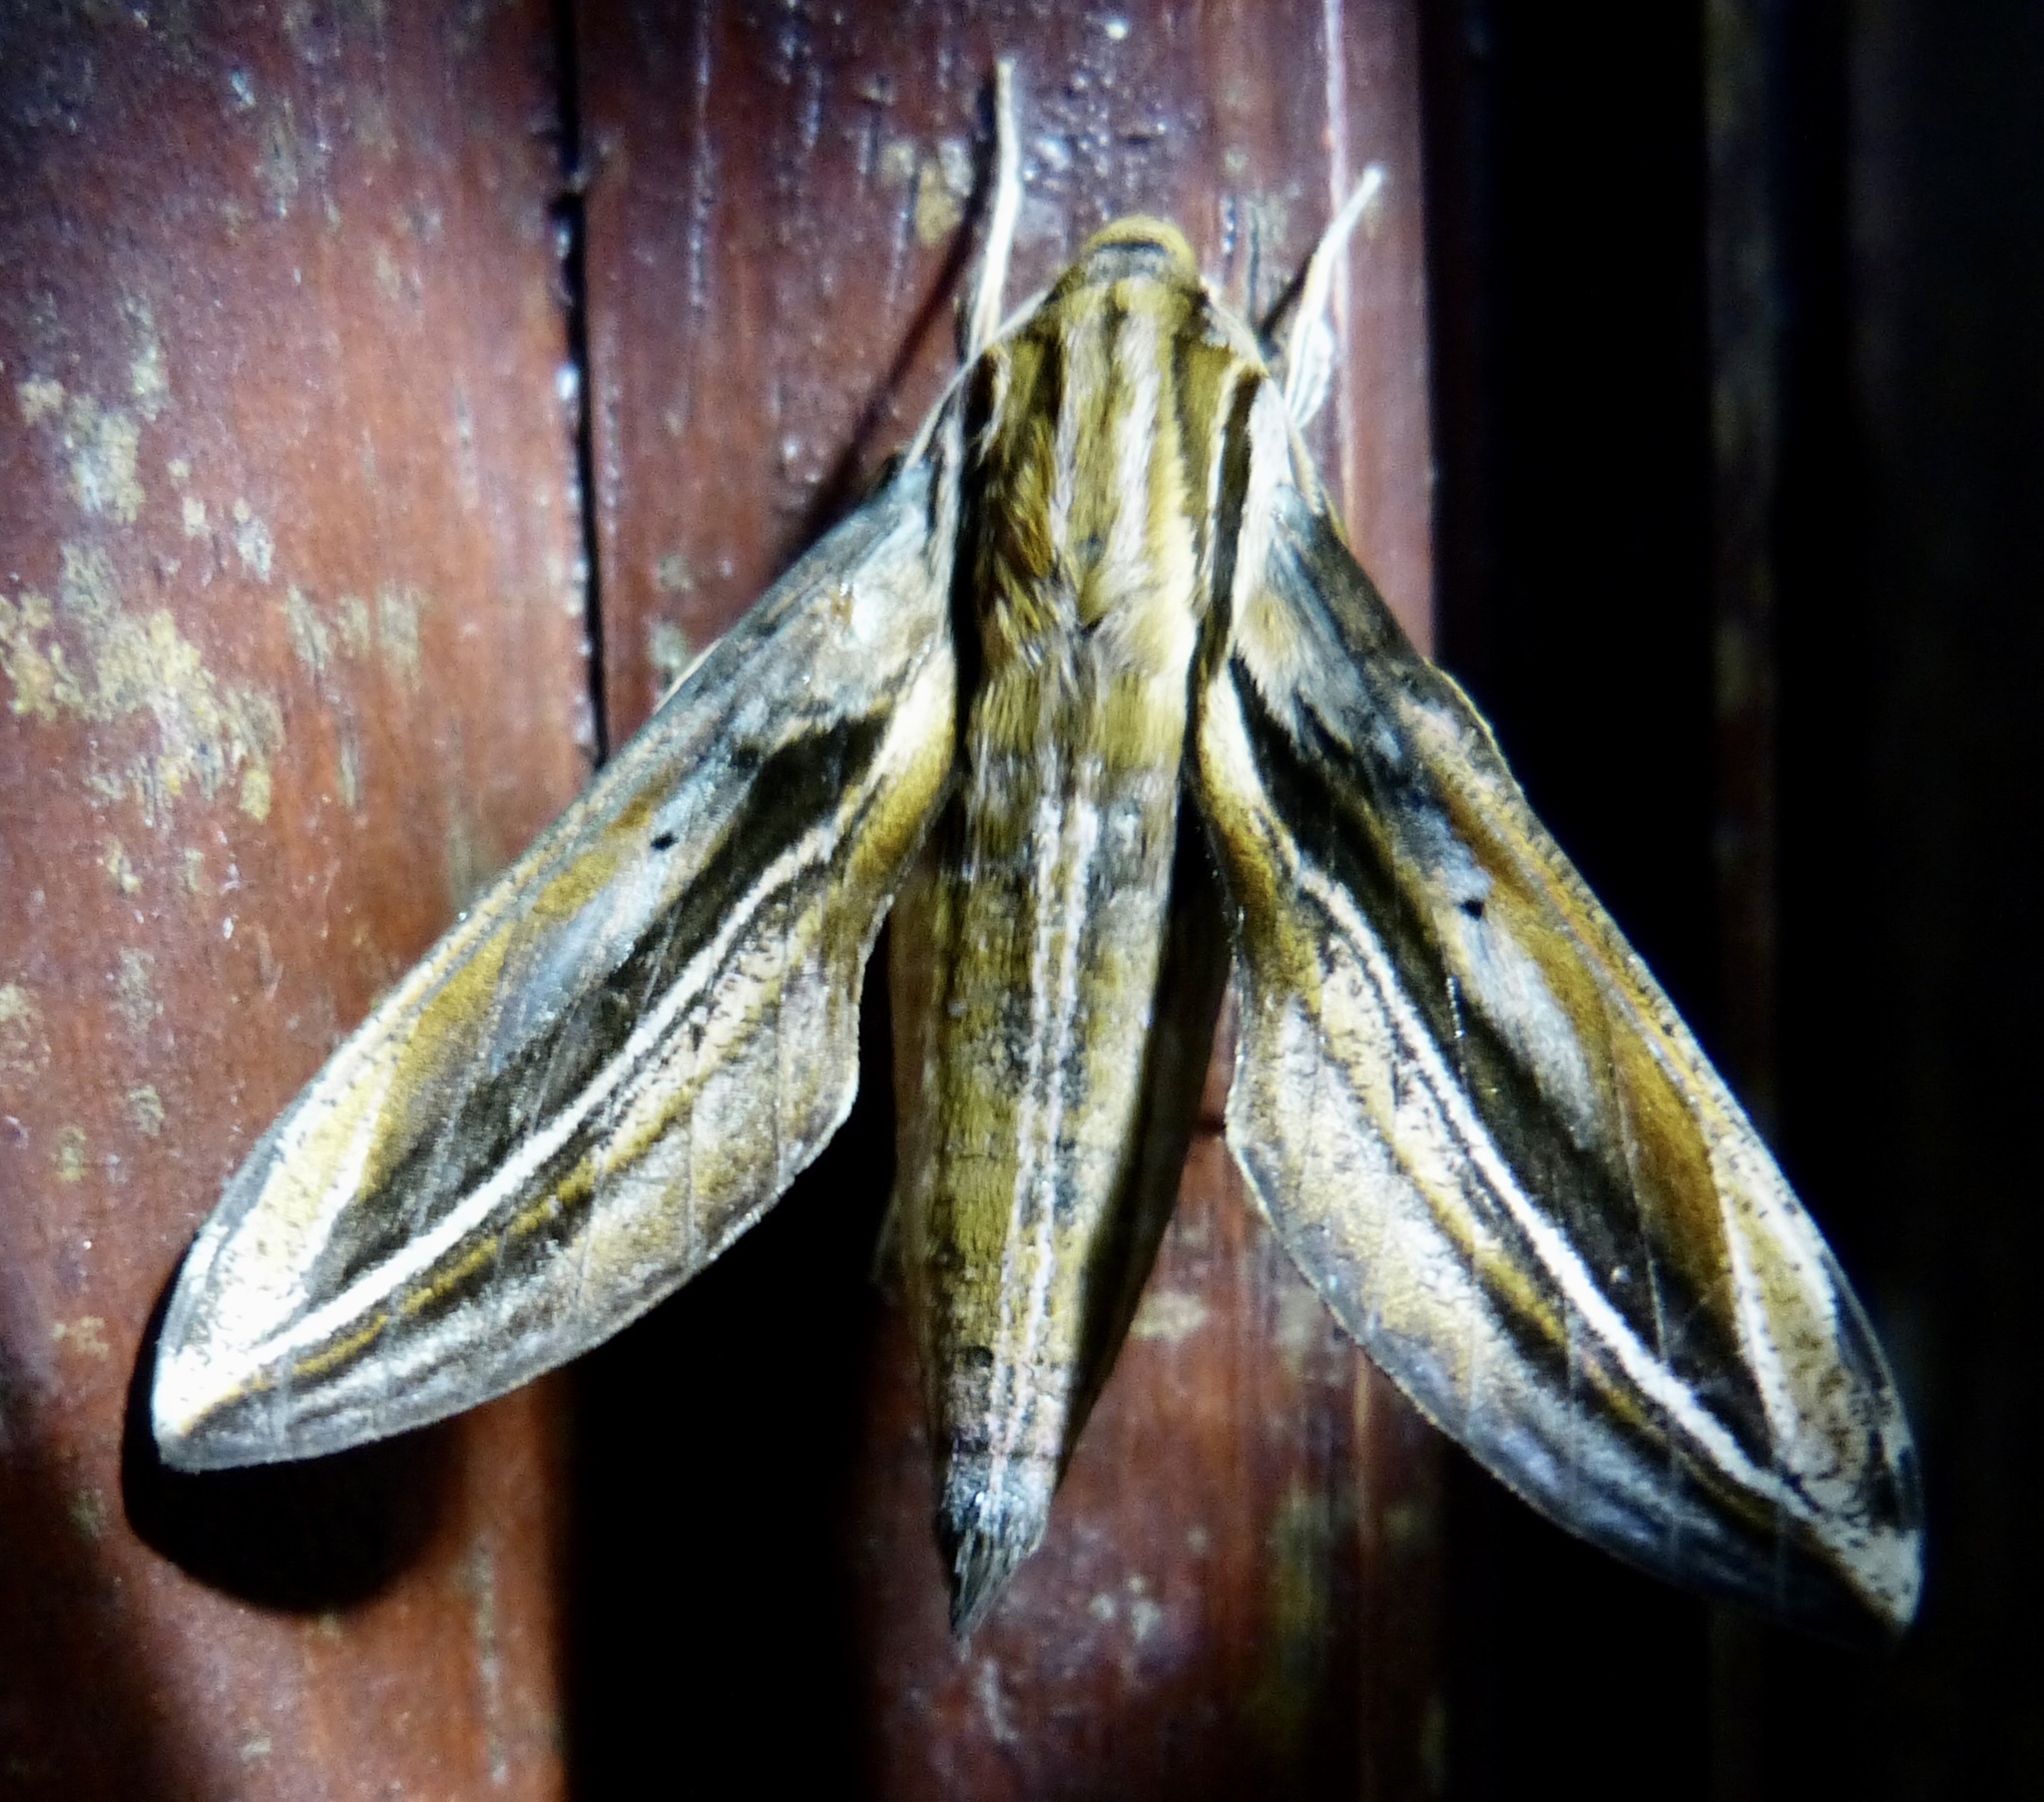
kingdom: Animalia
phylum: Arthropoda
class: Insecta
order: Lepidoptera
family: Sphingidae
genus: Xylophanes
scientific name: Xylophanes thyelia
